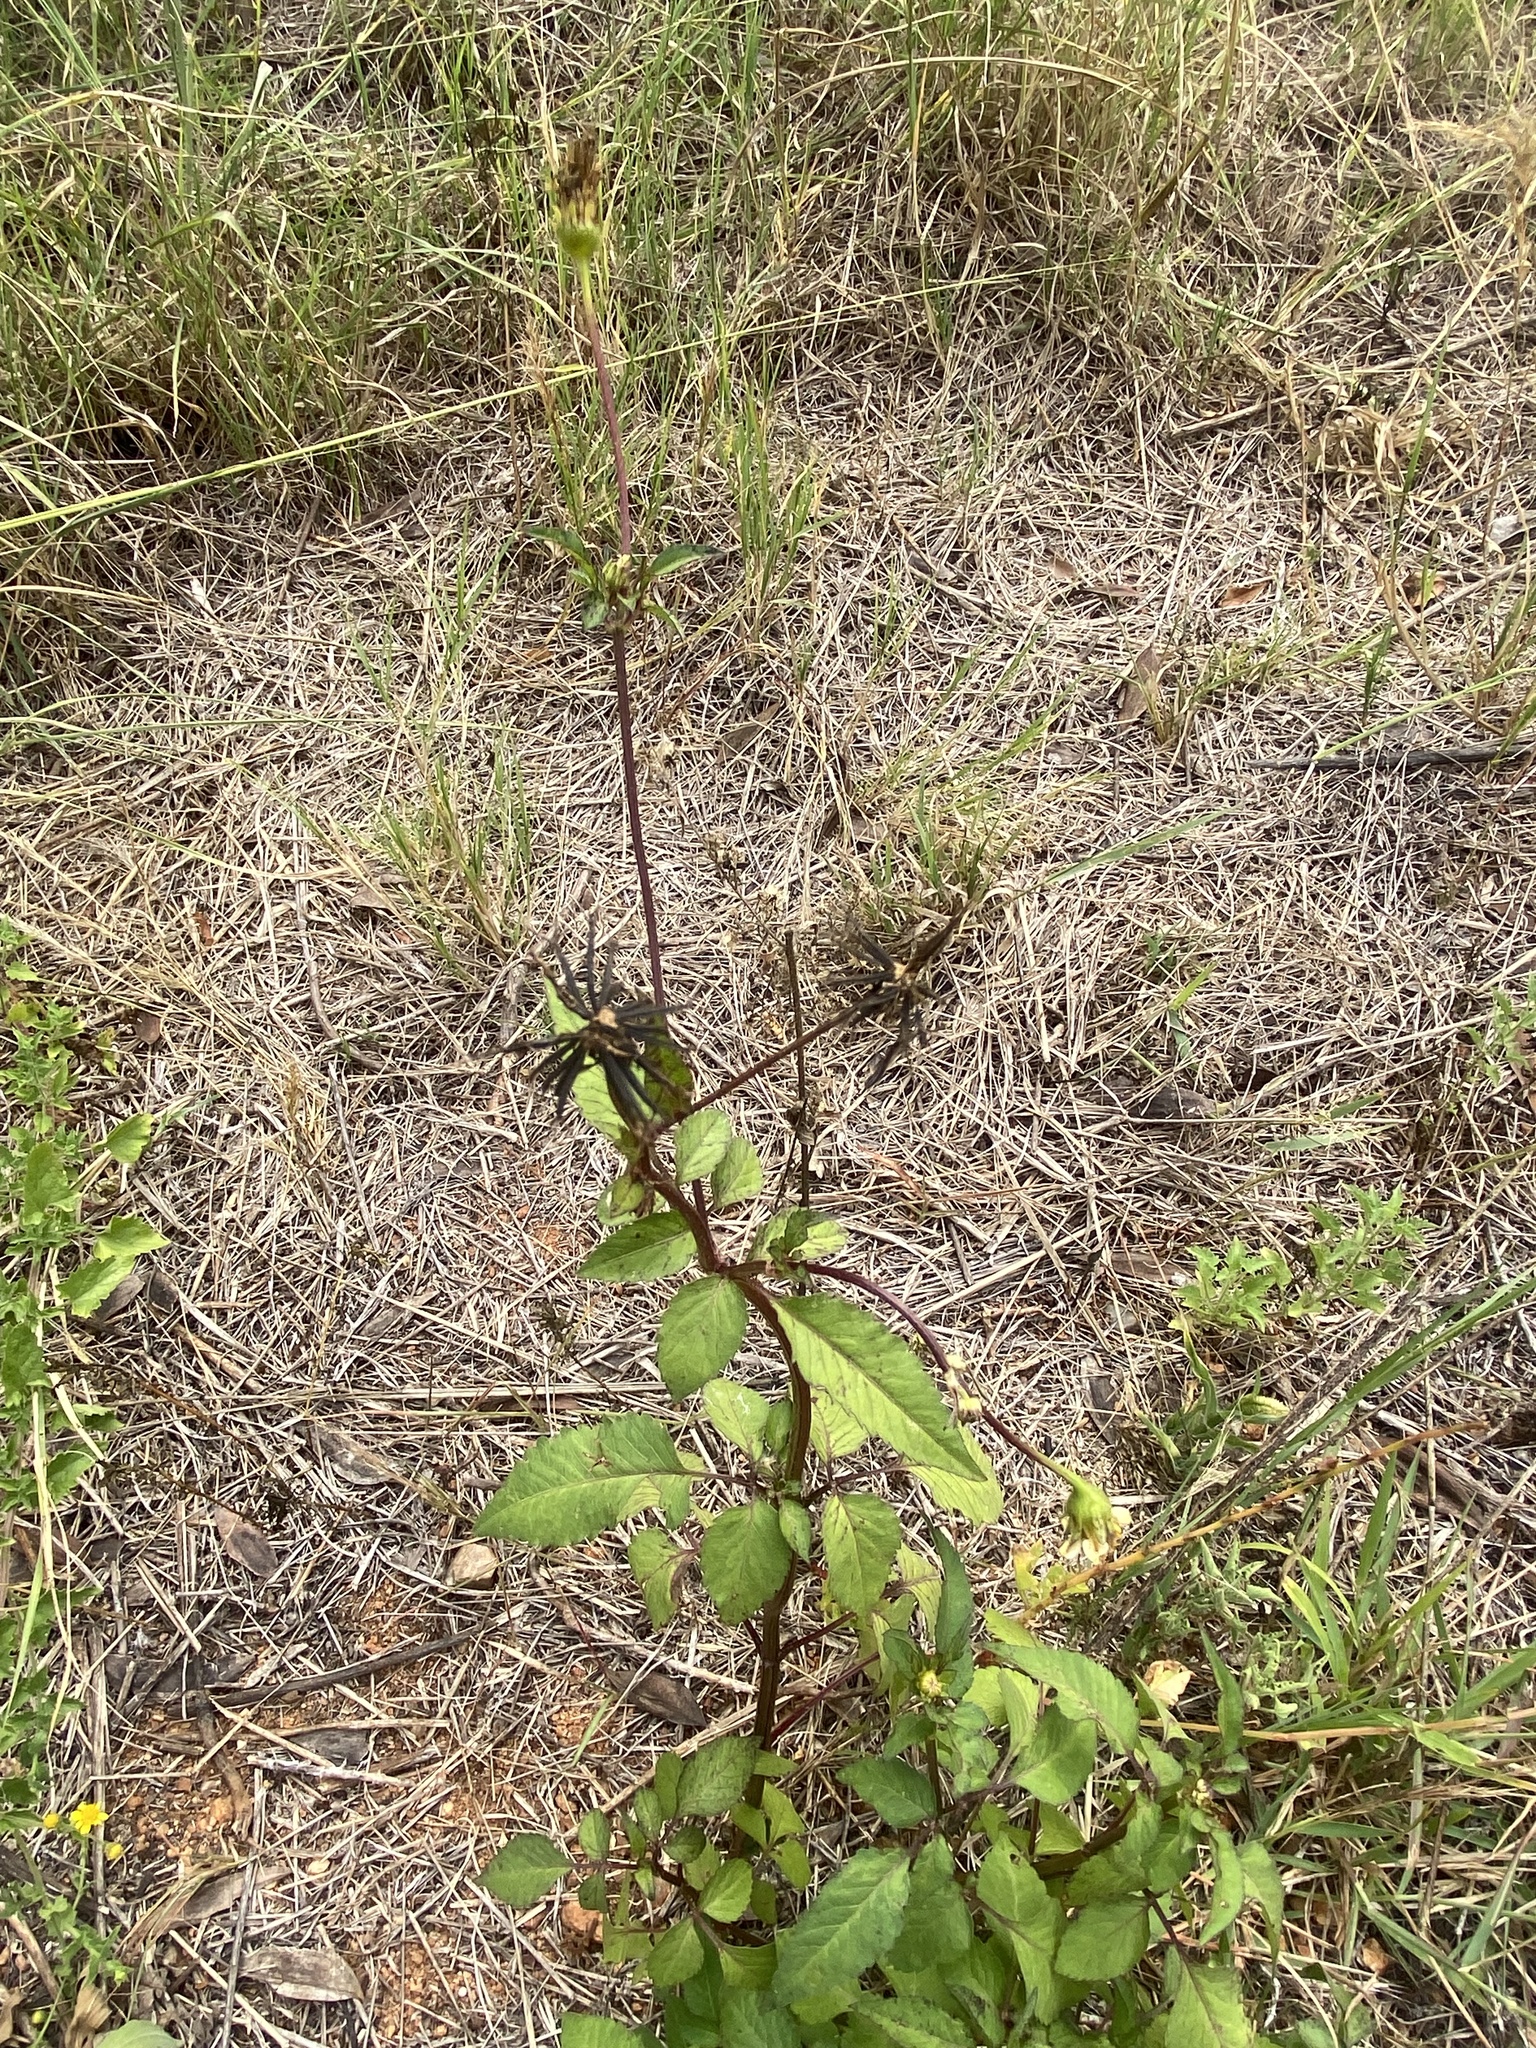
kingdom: Plantae
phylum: Tracheophyta
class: Magnoliopsida
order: Asterales
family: Asteraceae
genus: Bidens
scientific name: Bidens pilosa
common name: Black-jack
